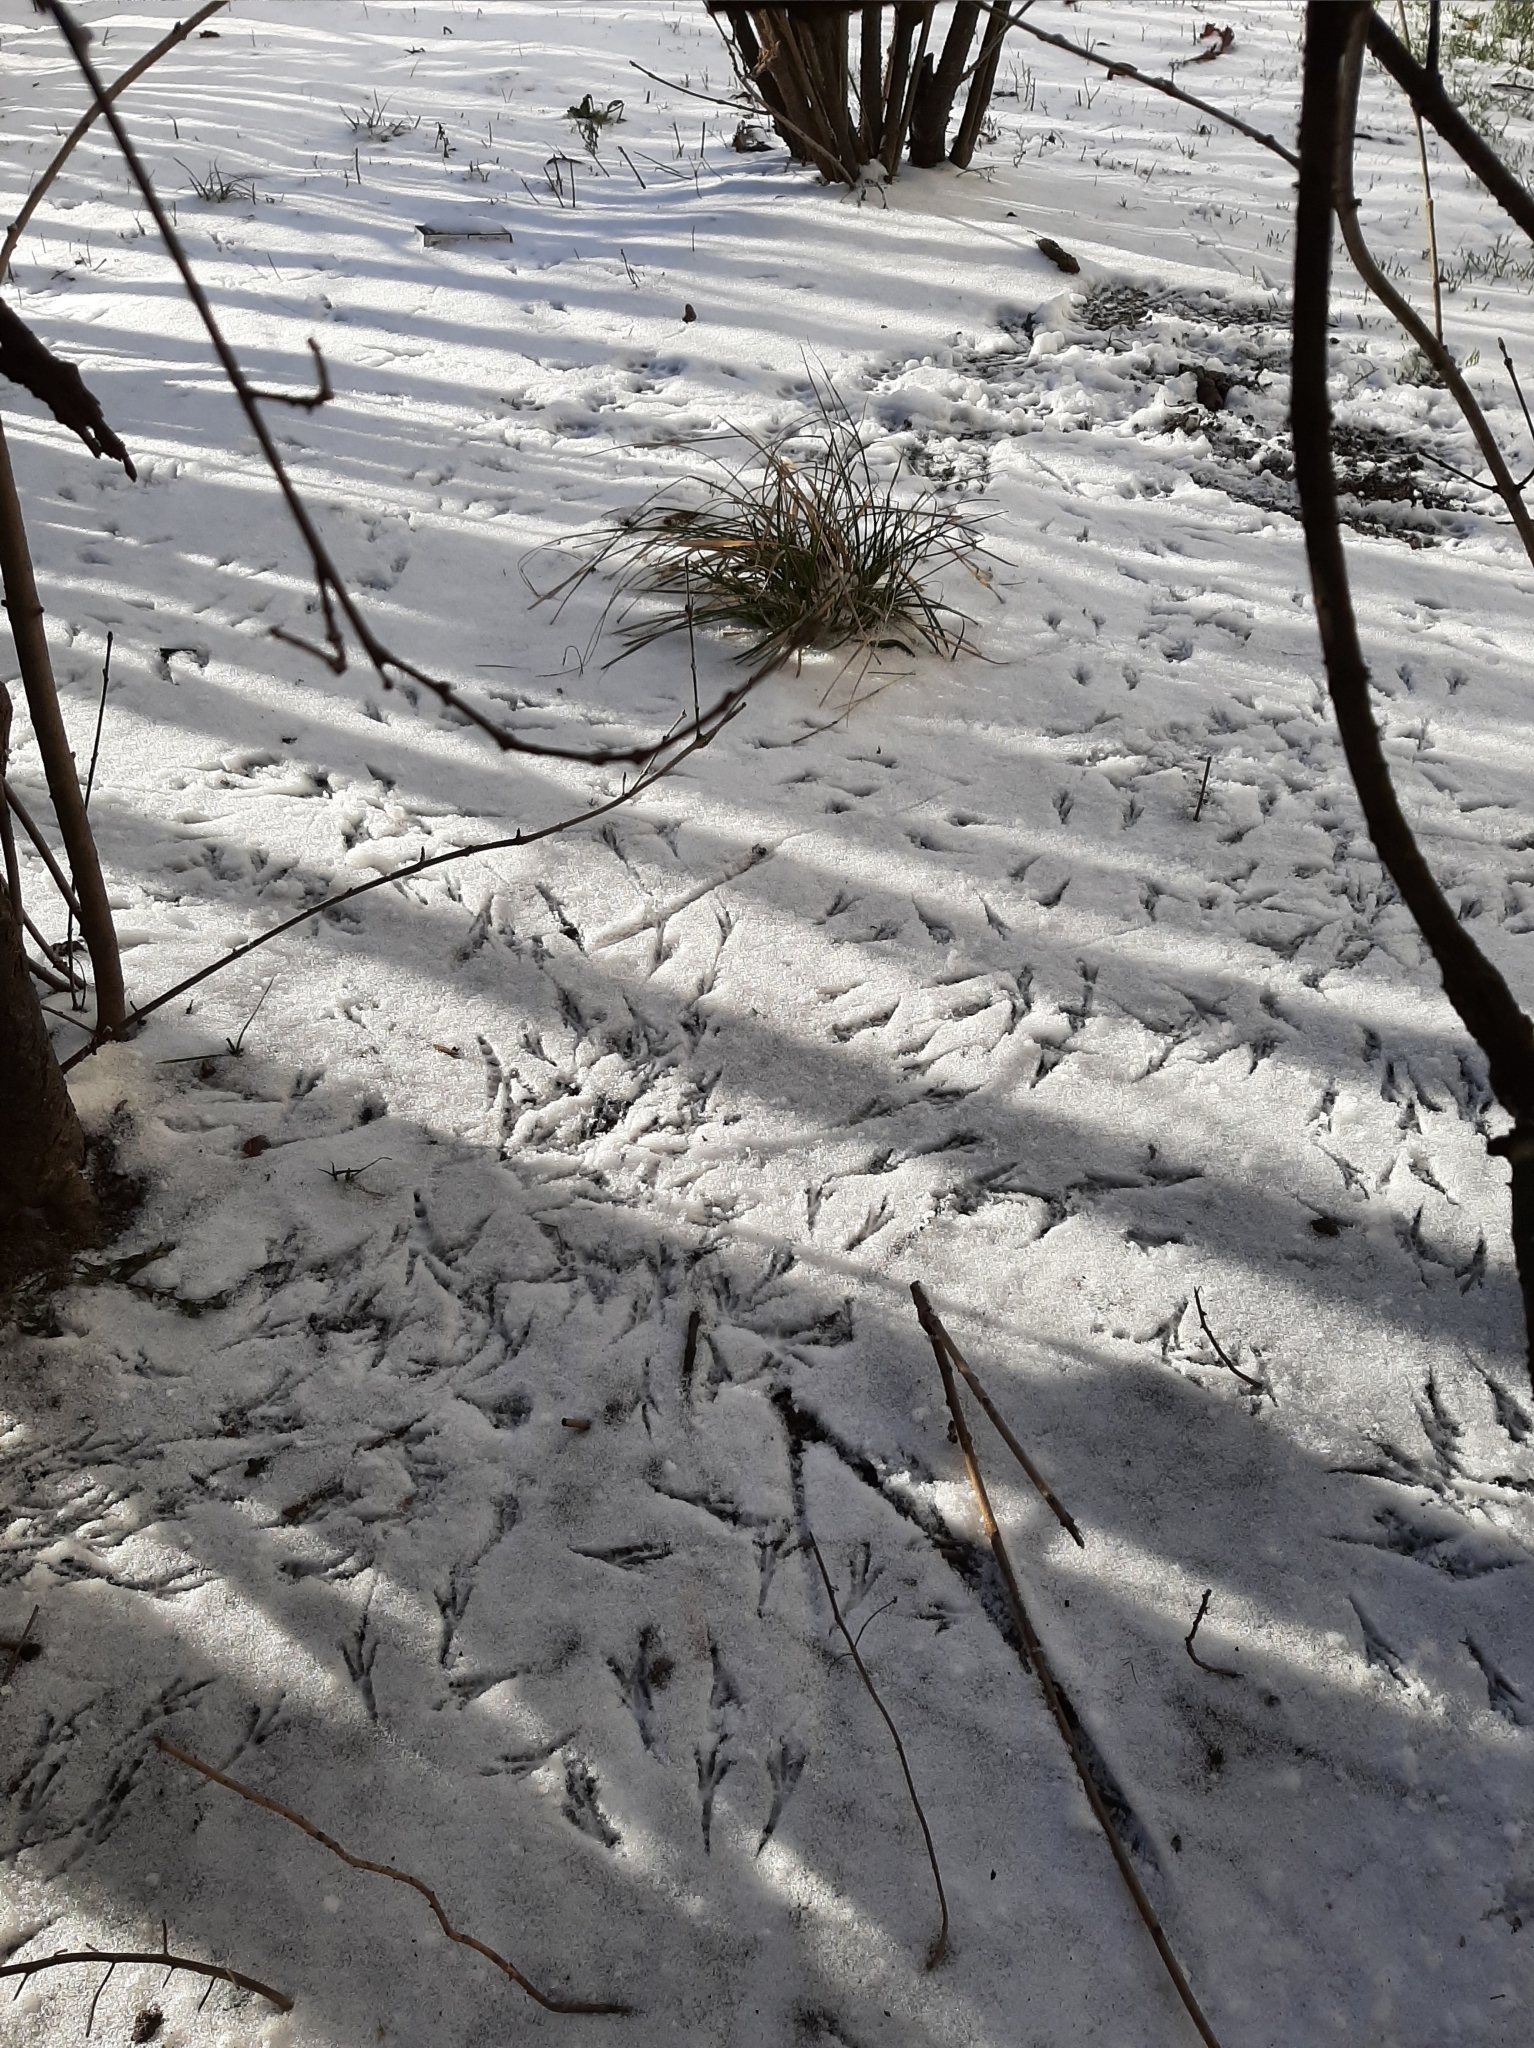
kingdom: Animalia
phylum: Chordata
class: Aves
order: Passeriformes
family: Passeridae
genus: Passer
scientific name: Passer montanus
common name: Eurasian tree sparrow
